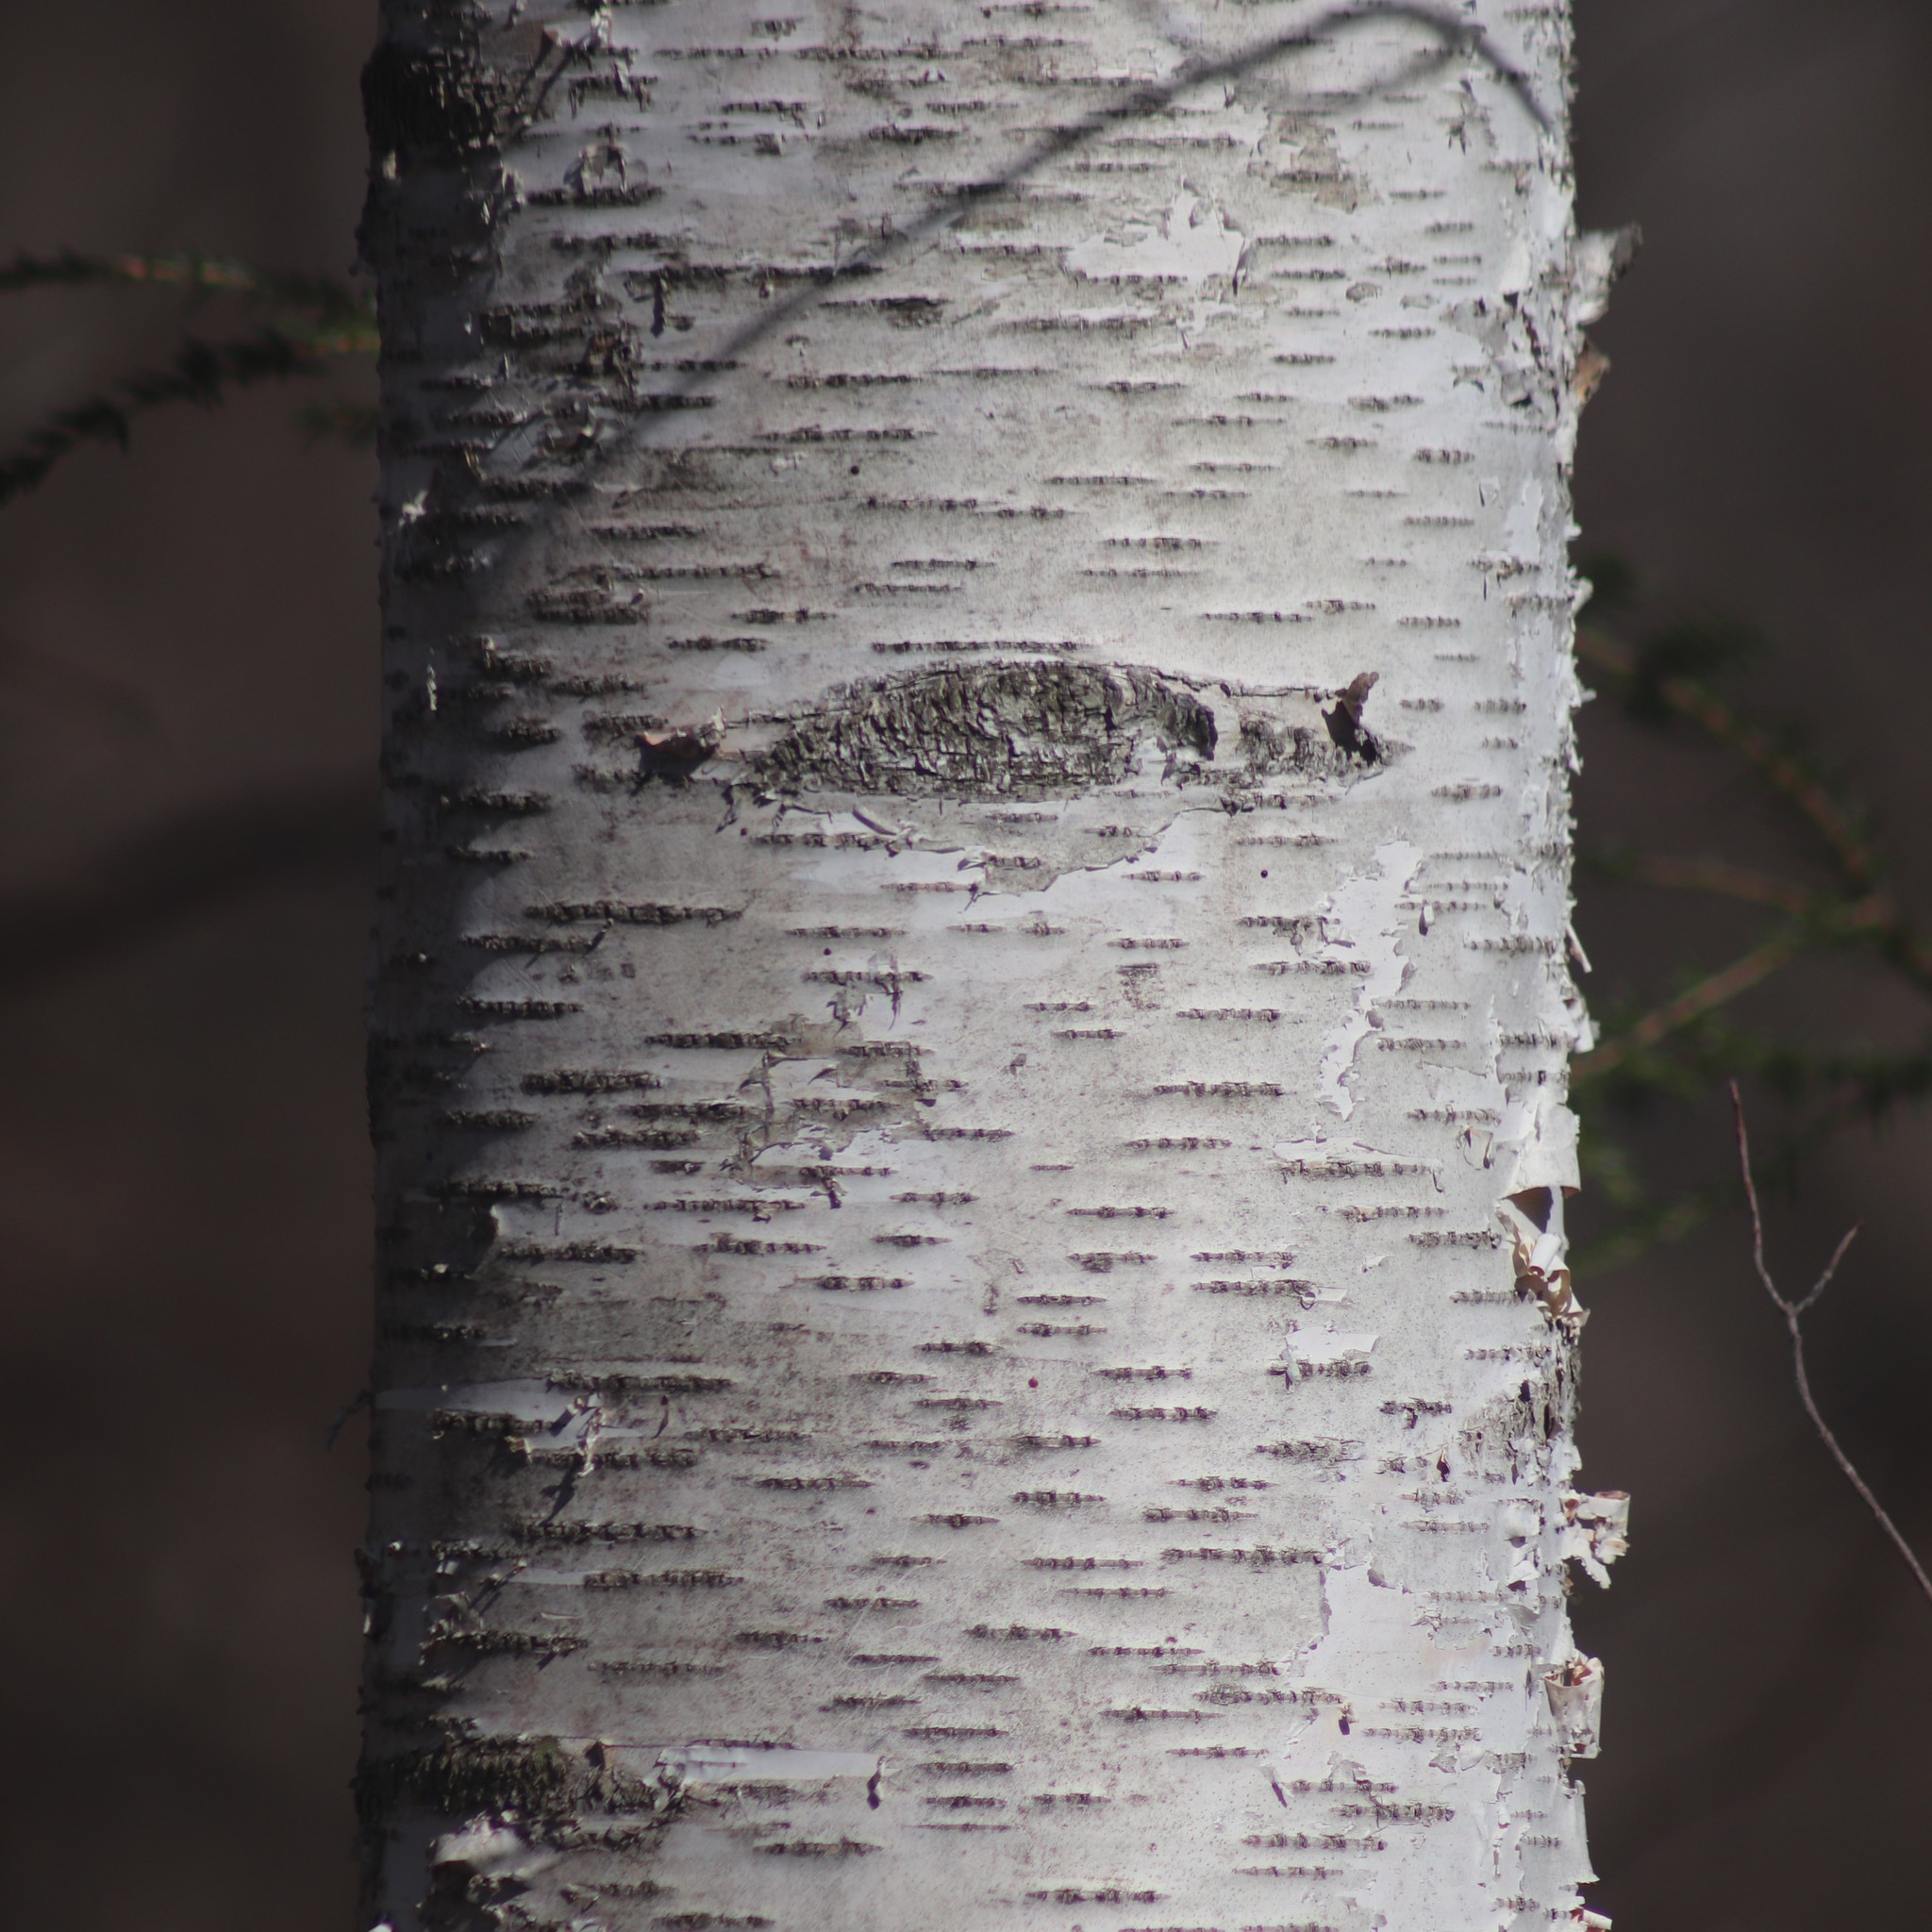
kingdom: Plantae
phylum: Tracheophyta
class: Magnoliopsida
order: Fagales
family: Betulaceae
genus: Betula
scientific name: Betula papyrifera
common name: Paper birch
